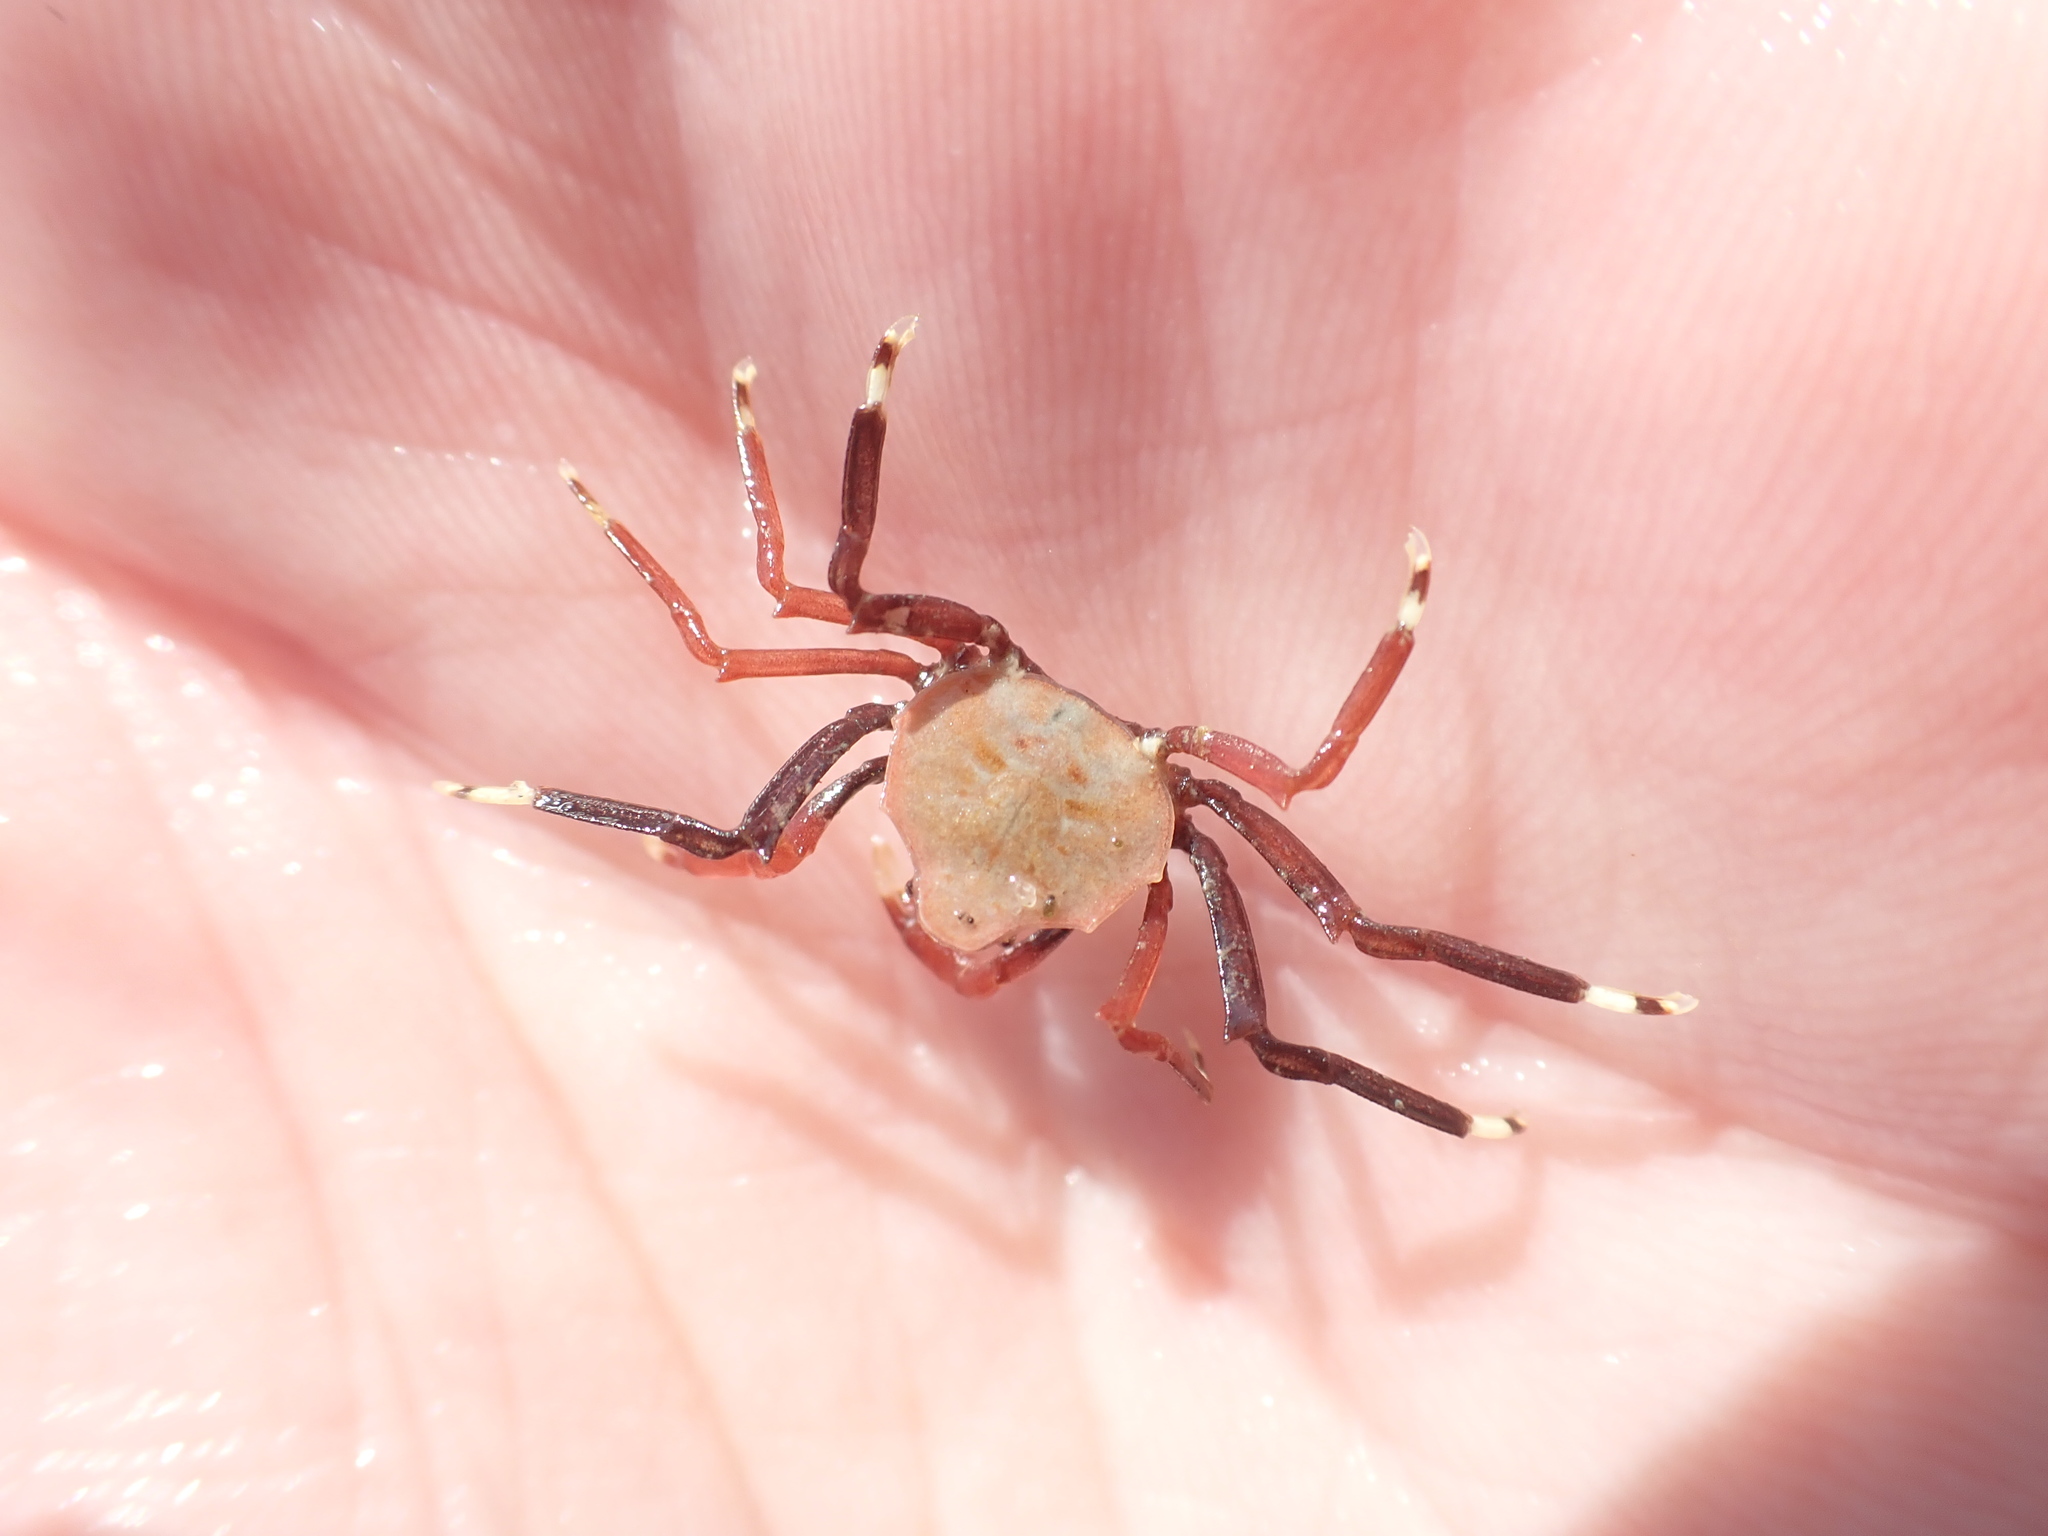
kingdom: Animalia
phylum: Arthropoda
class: Malacostraca
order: Decapoda
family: Hymenosomatidae
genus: Elamena
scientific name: Elamena producta
